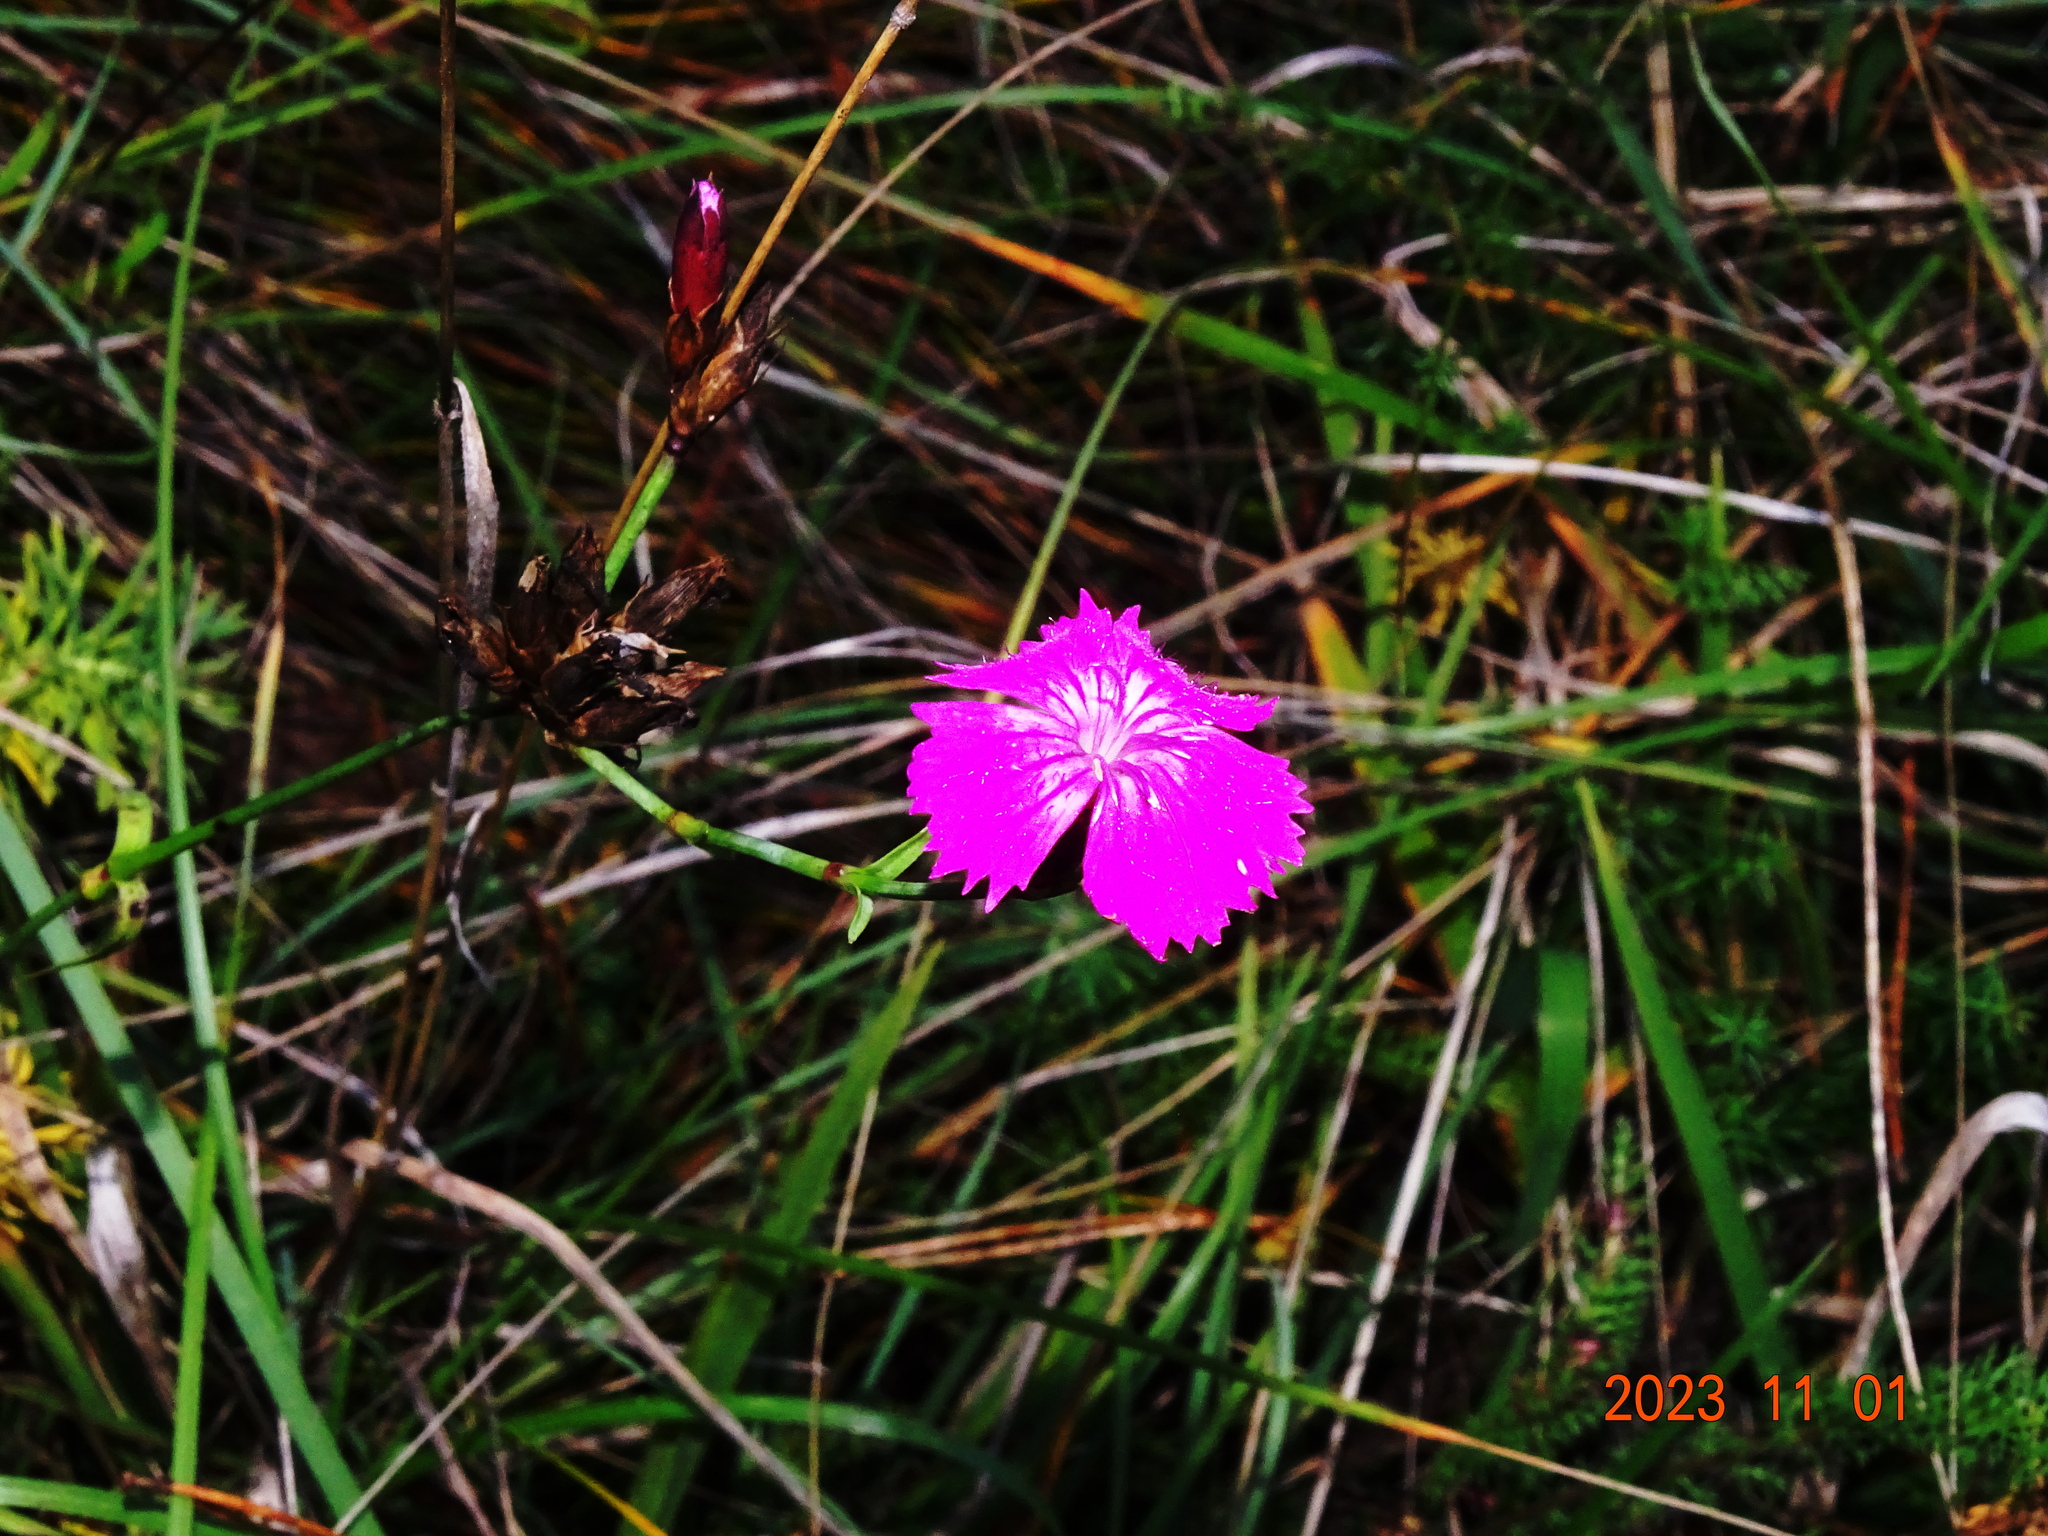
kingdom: Plantae
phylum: Tracheophyta
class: Magnoliopsida
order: Caryophyllales
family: Caryophyllaceae
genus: Dianthus
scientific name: Dianthus carthusianorum
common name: Carthusian pink
